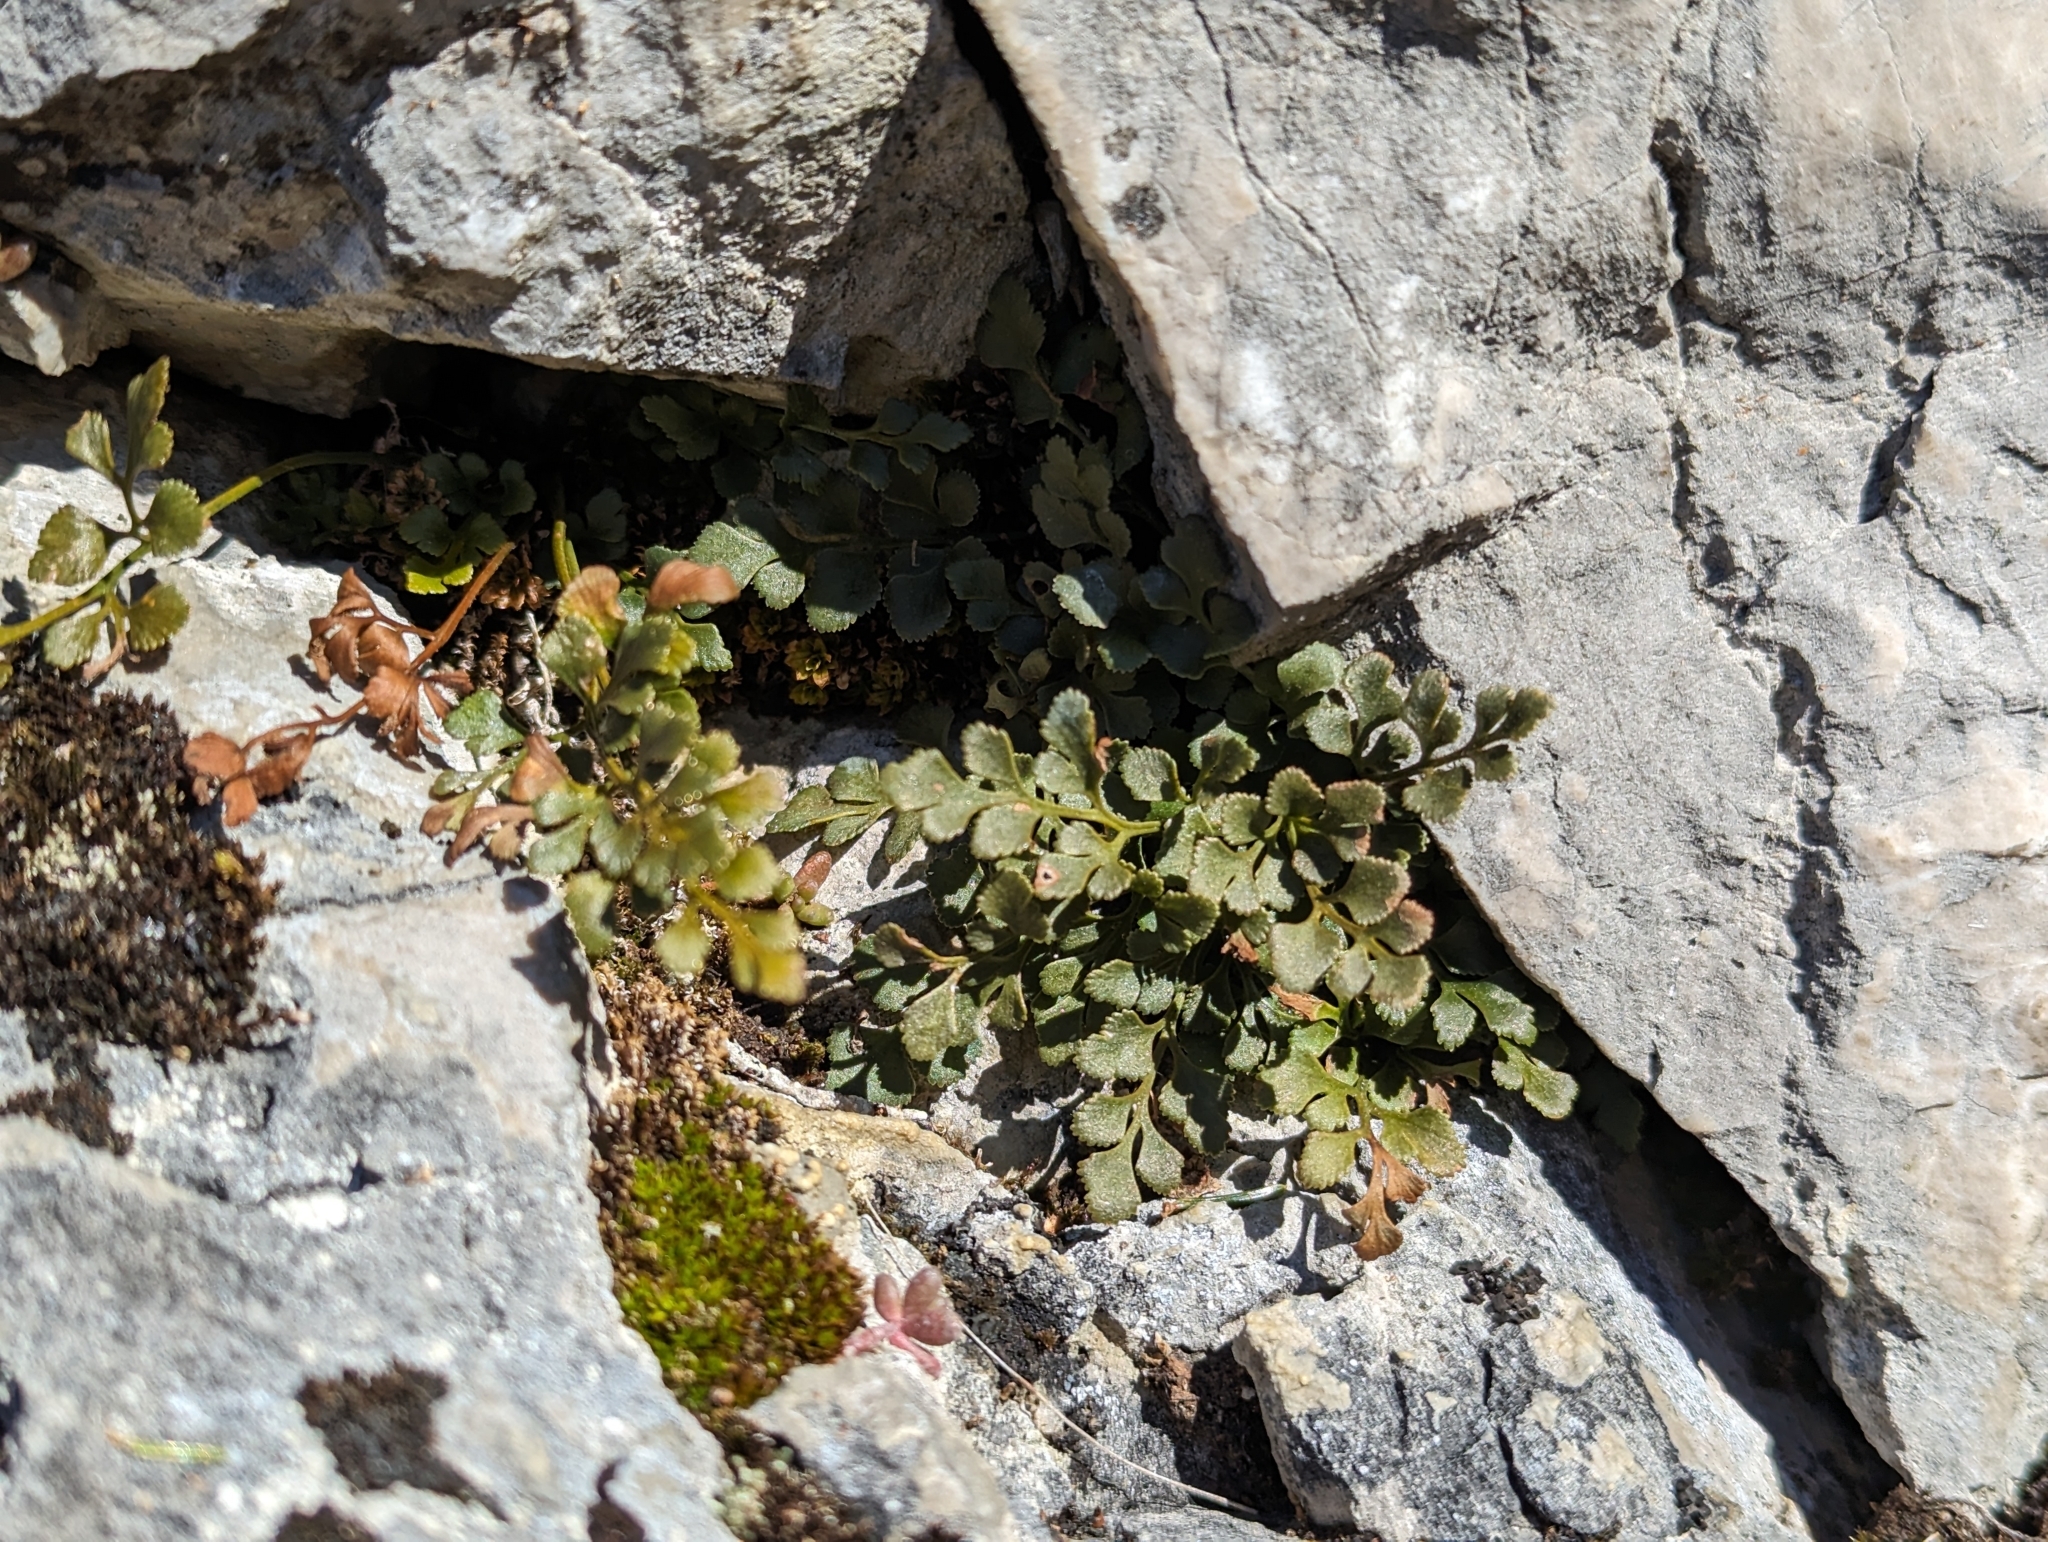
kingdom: Plantae
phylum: Tracheophyta
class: Polypodiopsida
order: Polypodiales
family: Aspleniaceae
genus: Asplenium
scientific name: Asplenium ruta-muraria
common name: Wall-rue
